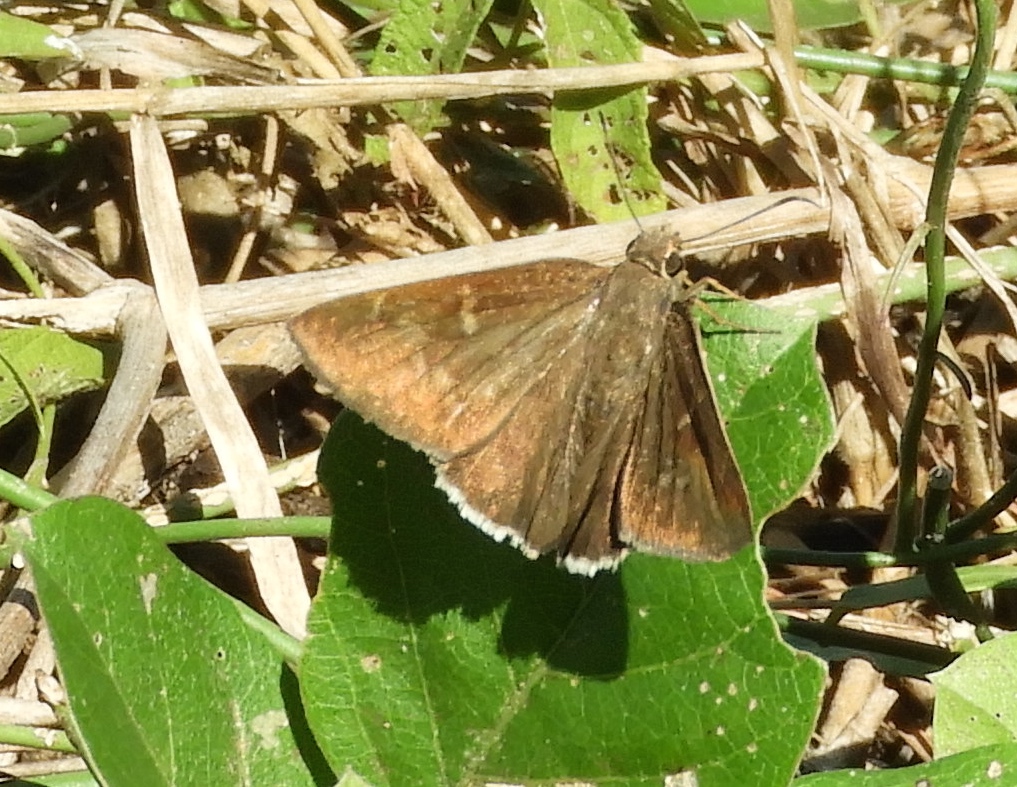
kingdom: Animalia
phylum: Arthropoda
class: Insecta
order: Lepidoptera
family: Hesperiidae
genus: Achalarus
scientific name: Achalarus Murgaria albociliatus
